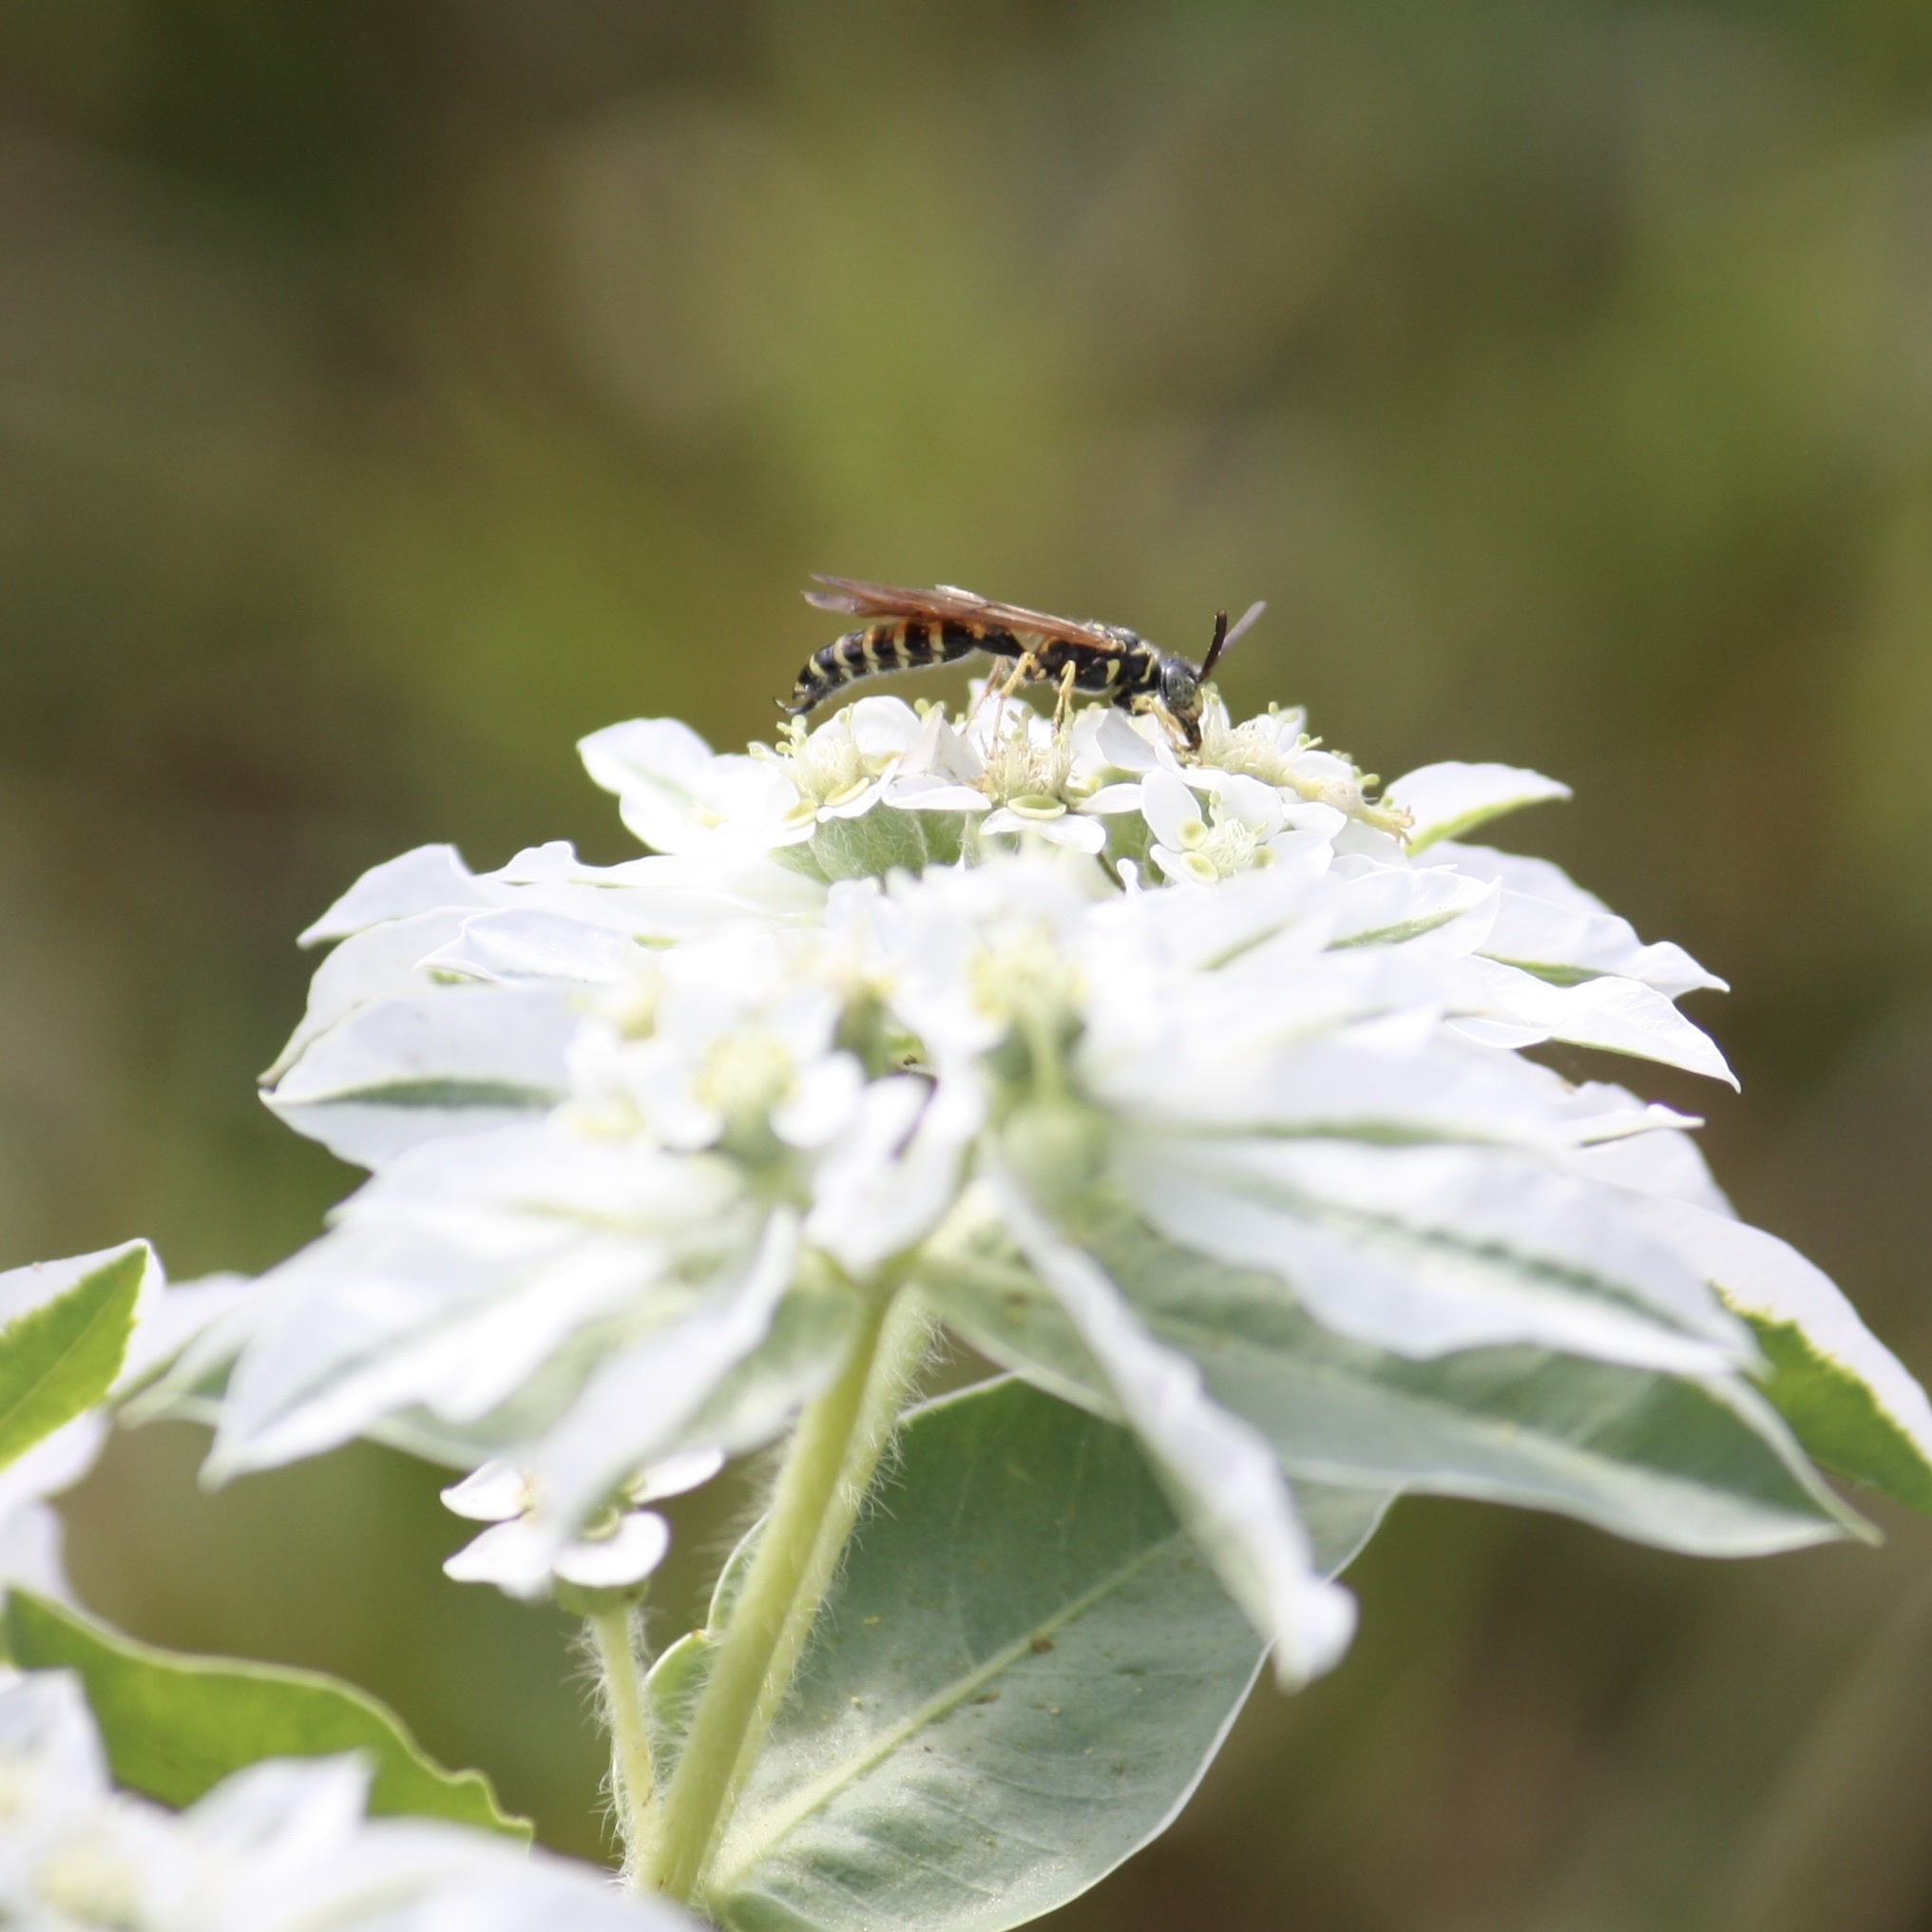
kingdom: Animalia
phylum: Arthropoda
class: Insecta
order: Hymenoptera
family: Tiphiidae
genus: Myzinum
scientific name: Myzinum quinquecinctum
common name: Five-banded thynnid wasp
